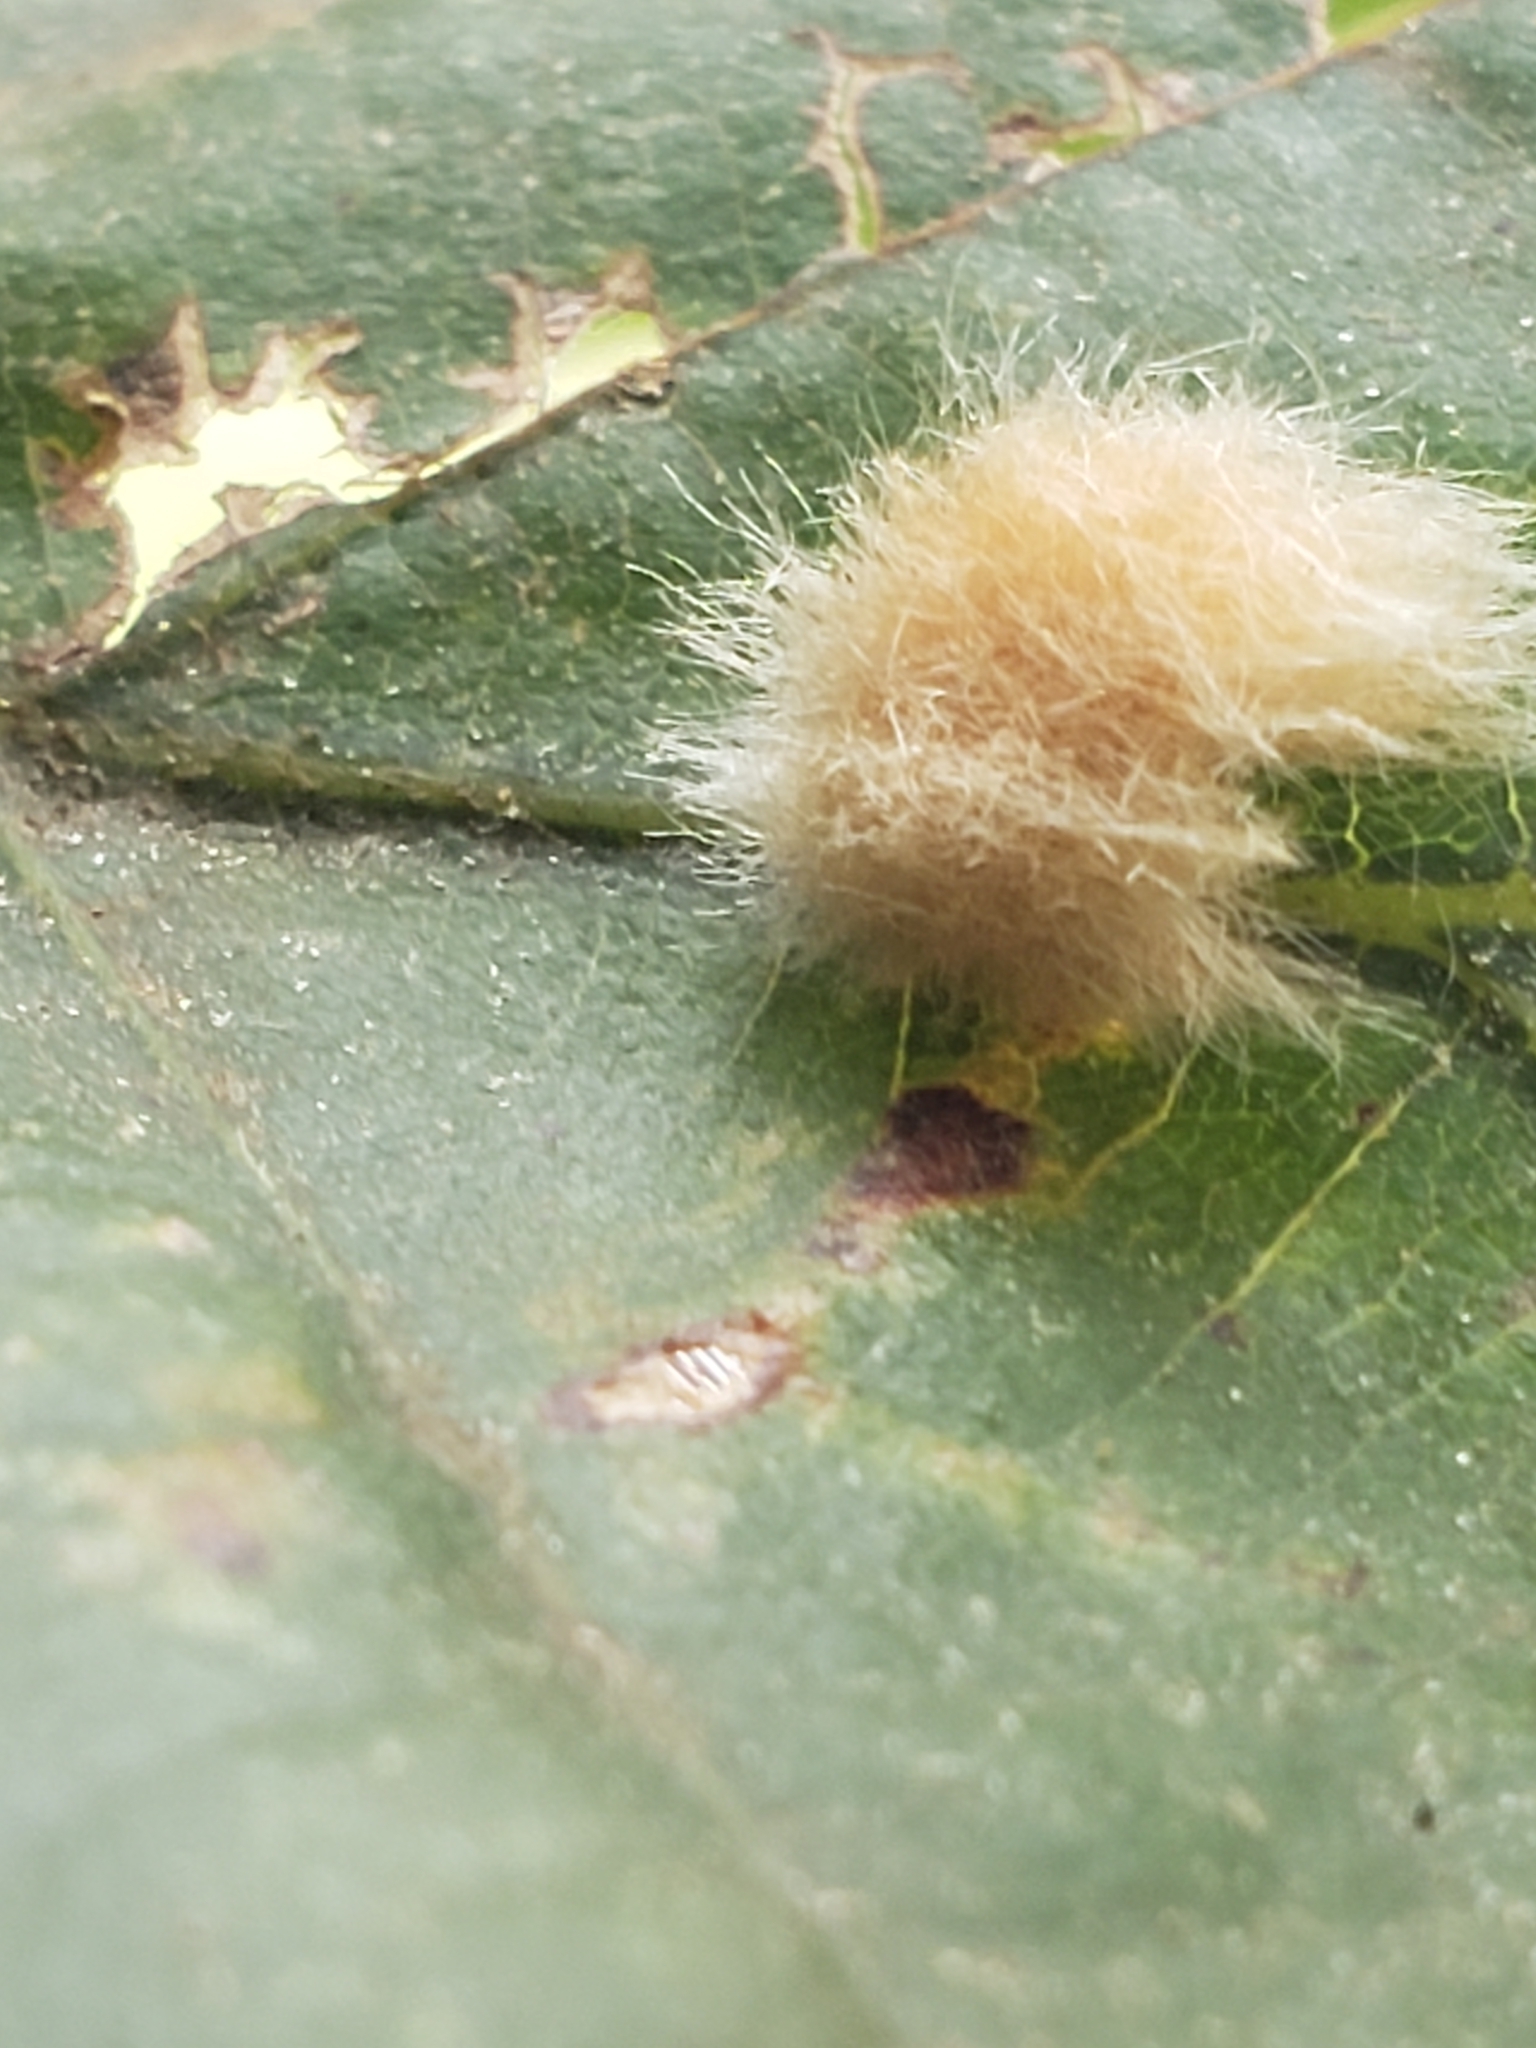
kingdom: Animalia
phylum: Arthropoda
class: Insecta
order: Hymenoptera
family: Cynipidae
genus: Andricus
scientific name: Andricus Druon ignotum
